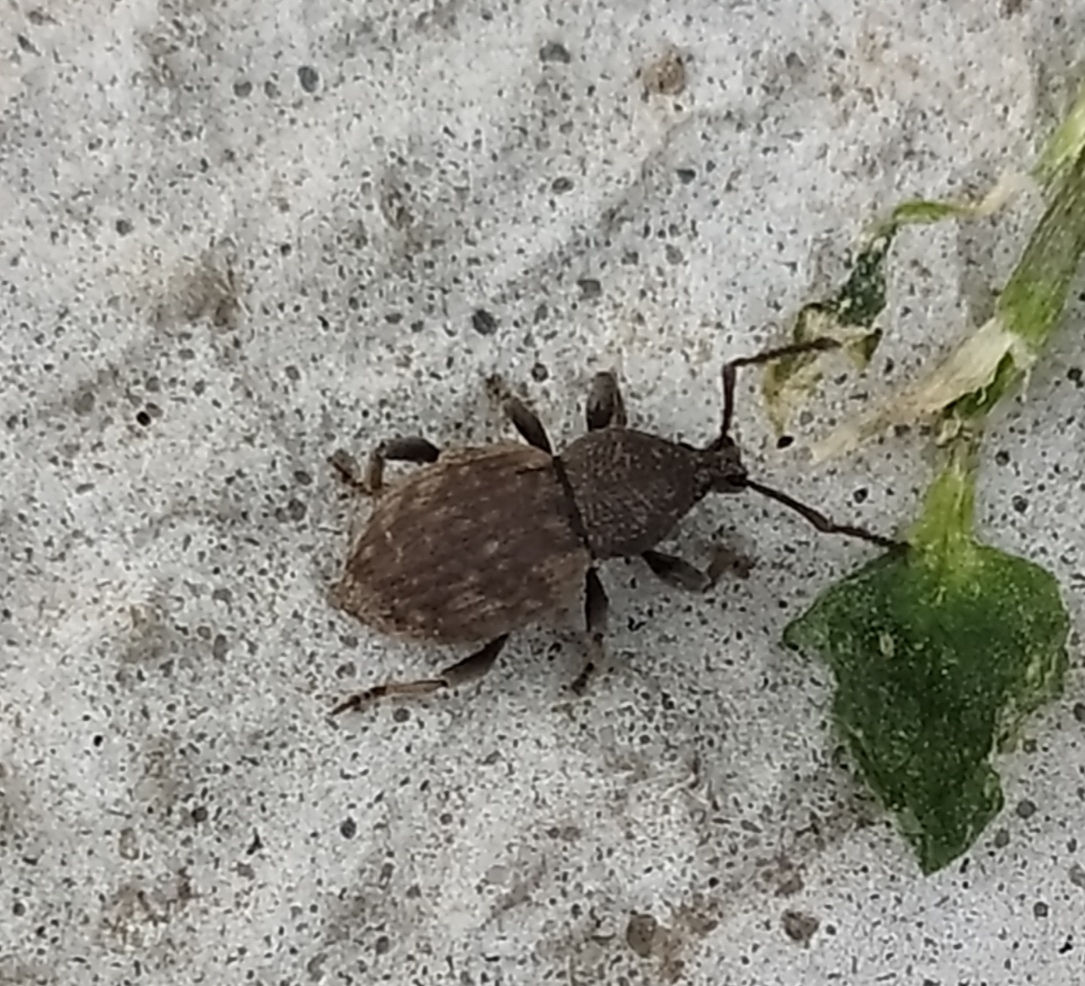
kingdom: Animalia
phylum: Arthropoda
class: Insecta
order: Coleoptera
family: Curculionidae
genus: Otiorhynchus
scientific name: Otiorhynchus raucus
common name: Weevil
